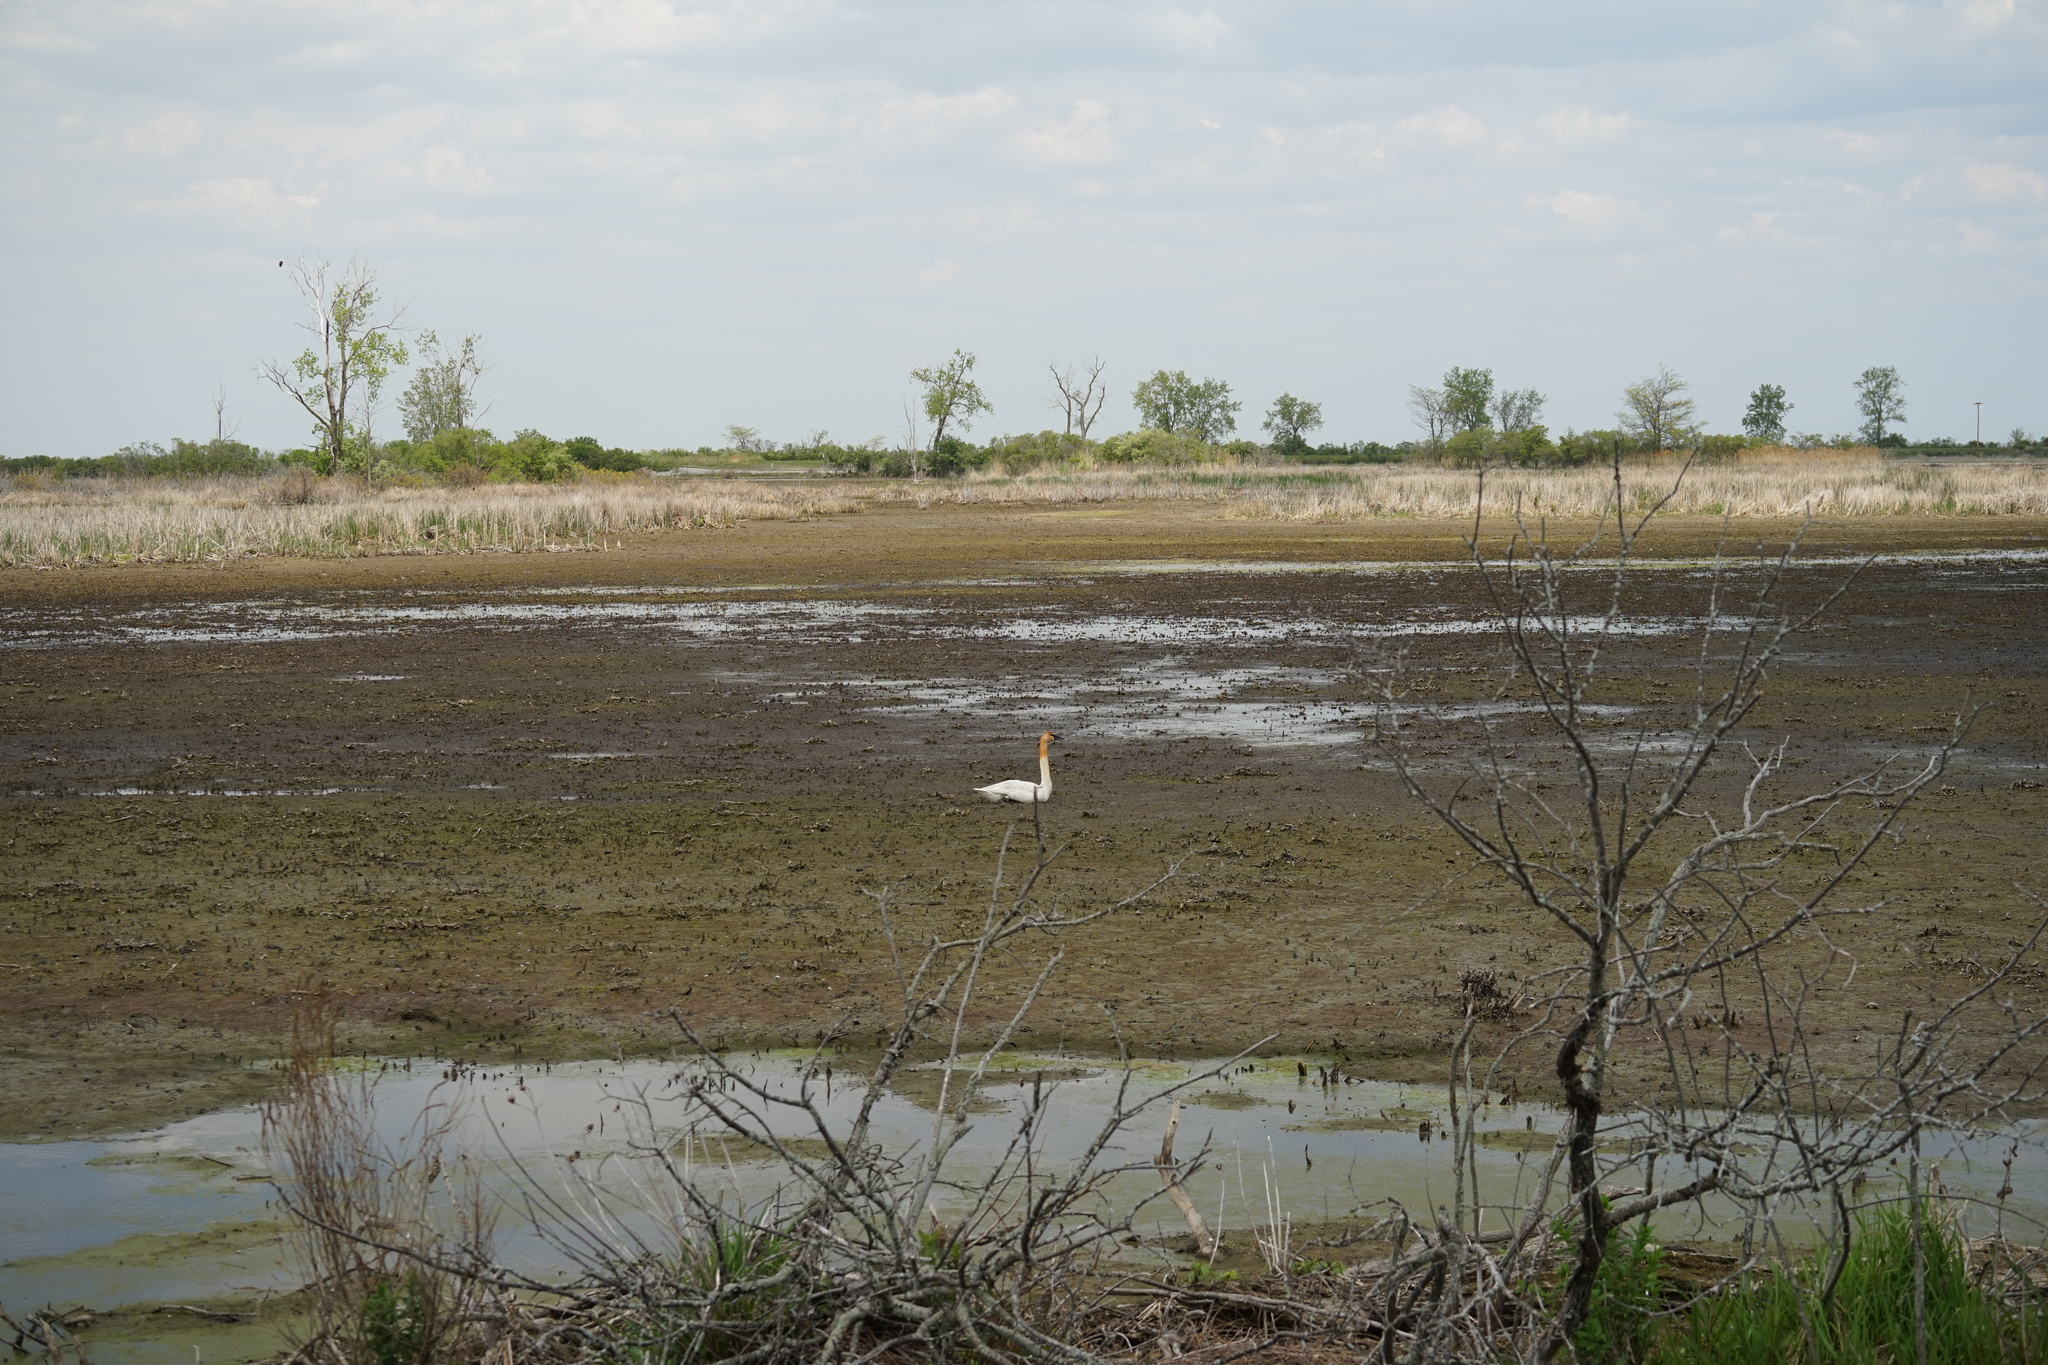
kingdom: Animalia
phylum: Chordata
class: Aves
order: Anseriformes
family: Anatidae
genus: Cygnus
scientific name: Cygnus buccinator
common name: Trumpeter swan
